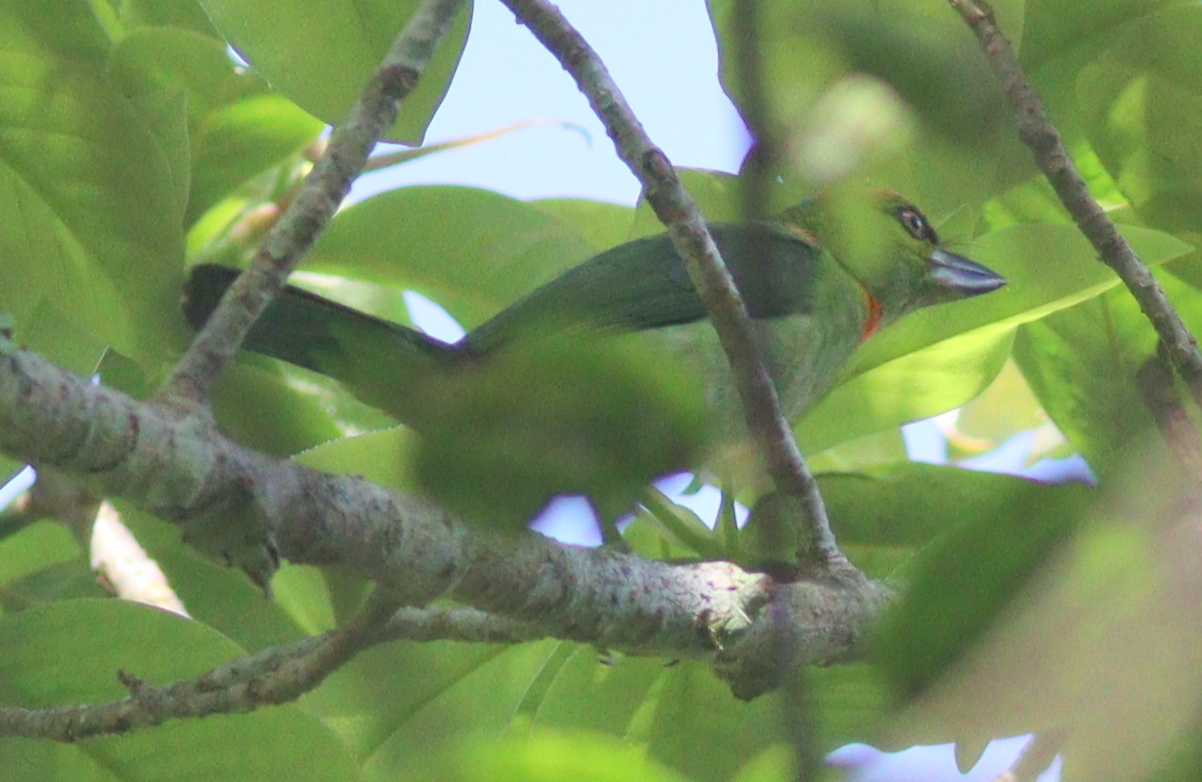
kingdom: Animalia
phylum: Chordata
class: Aves
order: Piciformes
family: Megalaimidae
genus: Psilopogon
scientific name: Psilopogon armillaris
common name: Flame-fronted barbet
